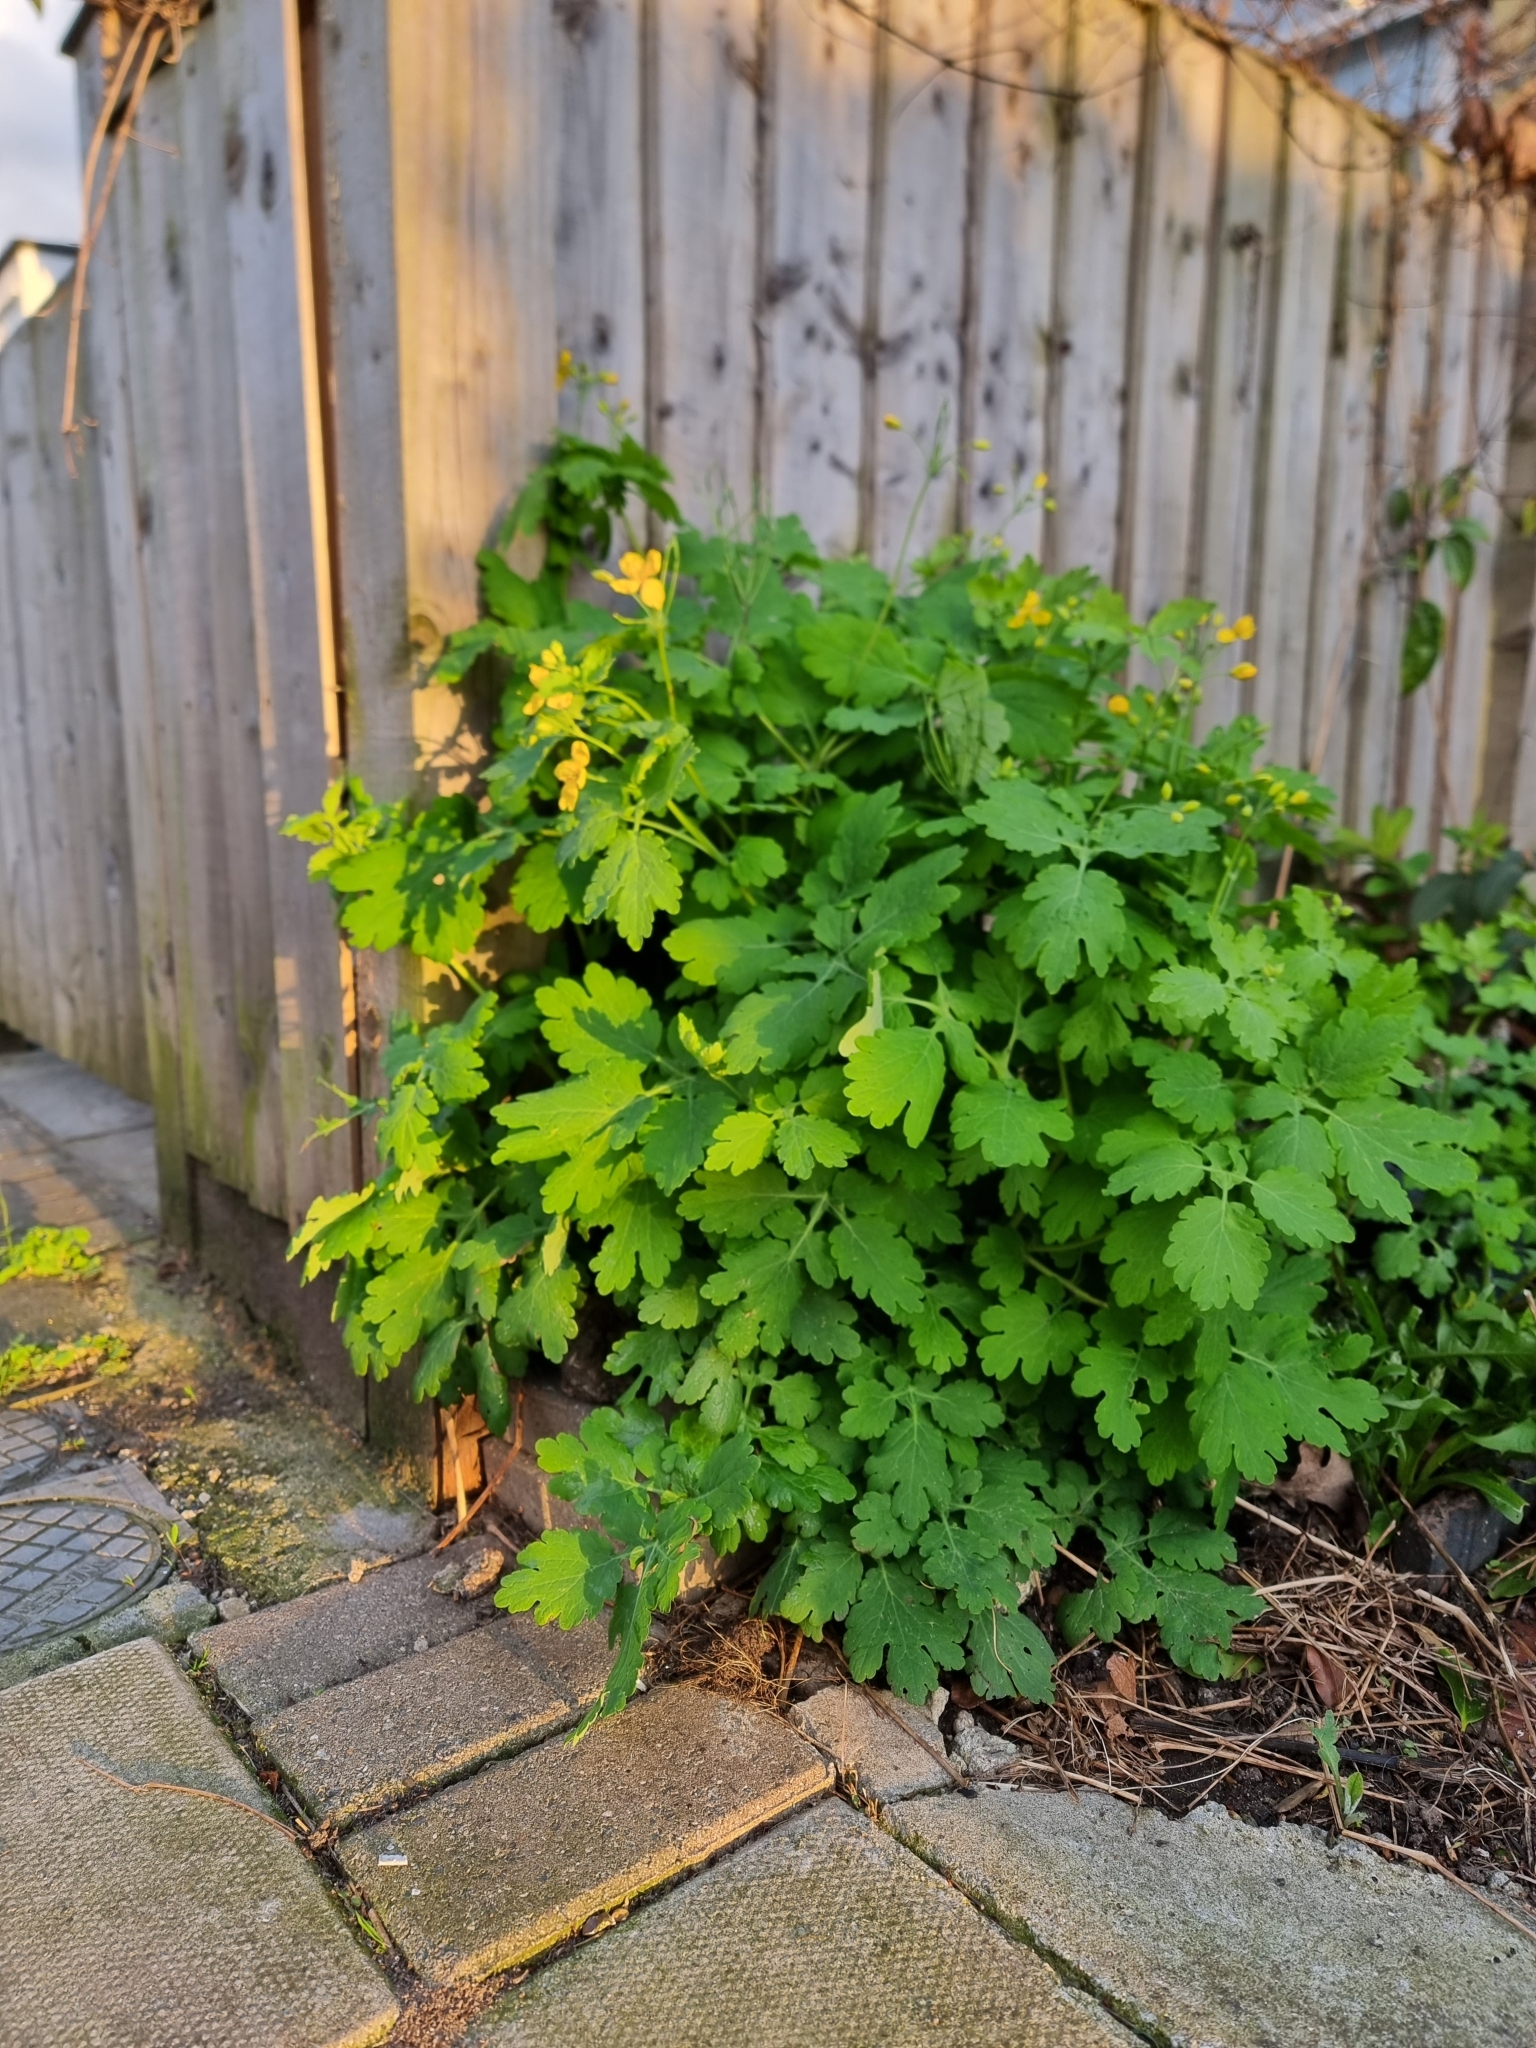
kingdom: Plantae
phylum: Tracheophyta
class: Magnoliopsida
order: Ranunculales
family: Papaveraceae
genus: Chelidonium
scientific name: Chelidonium majus
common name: Greater celandine
